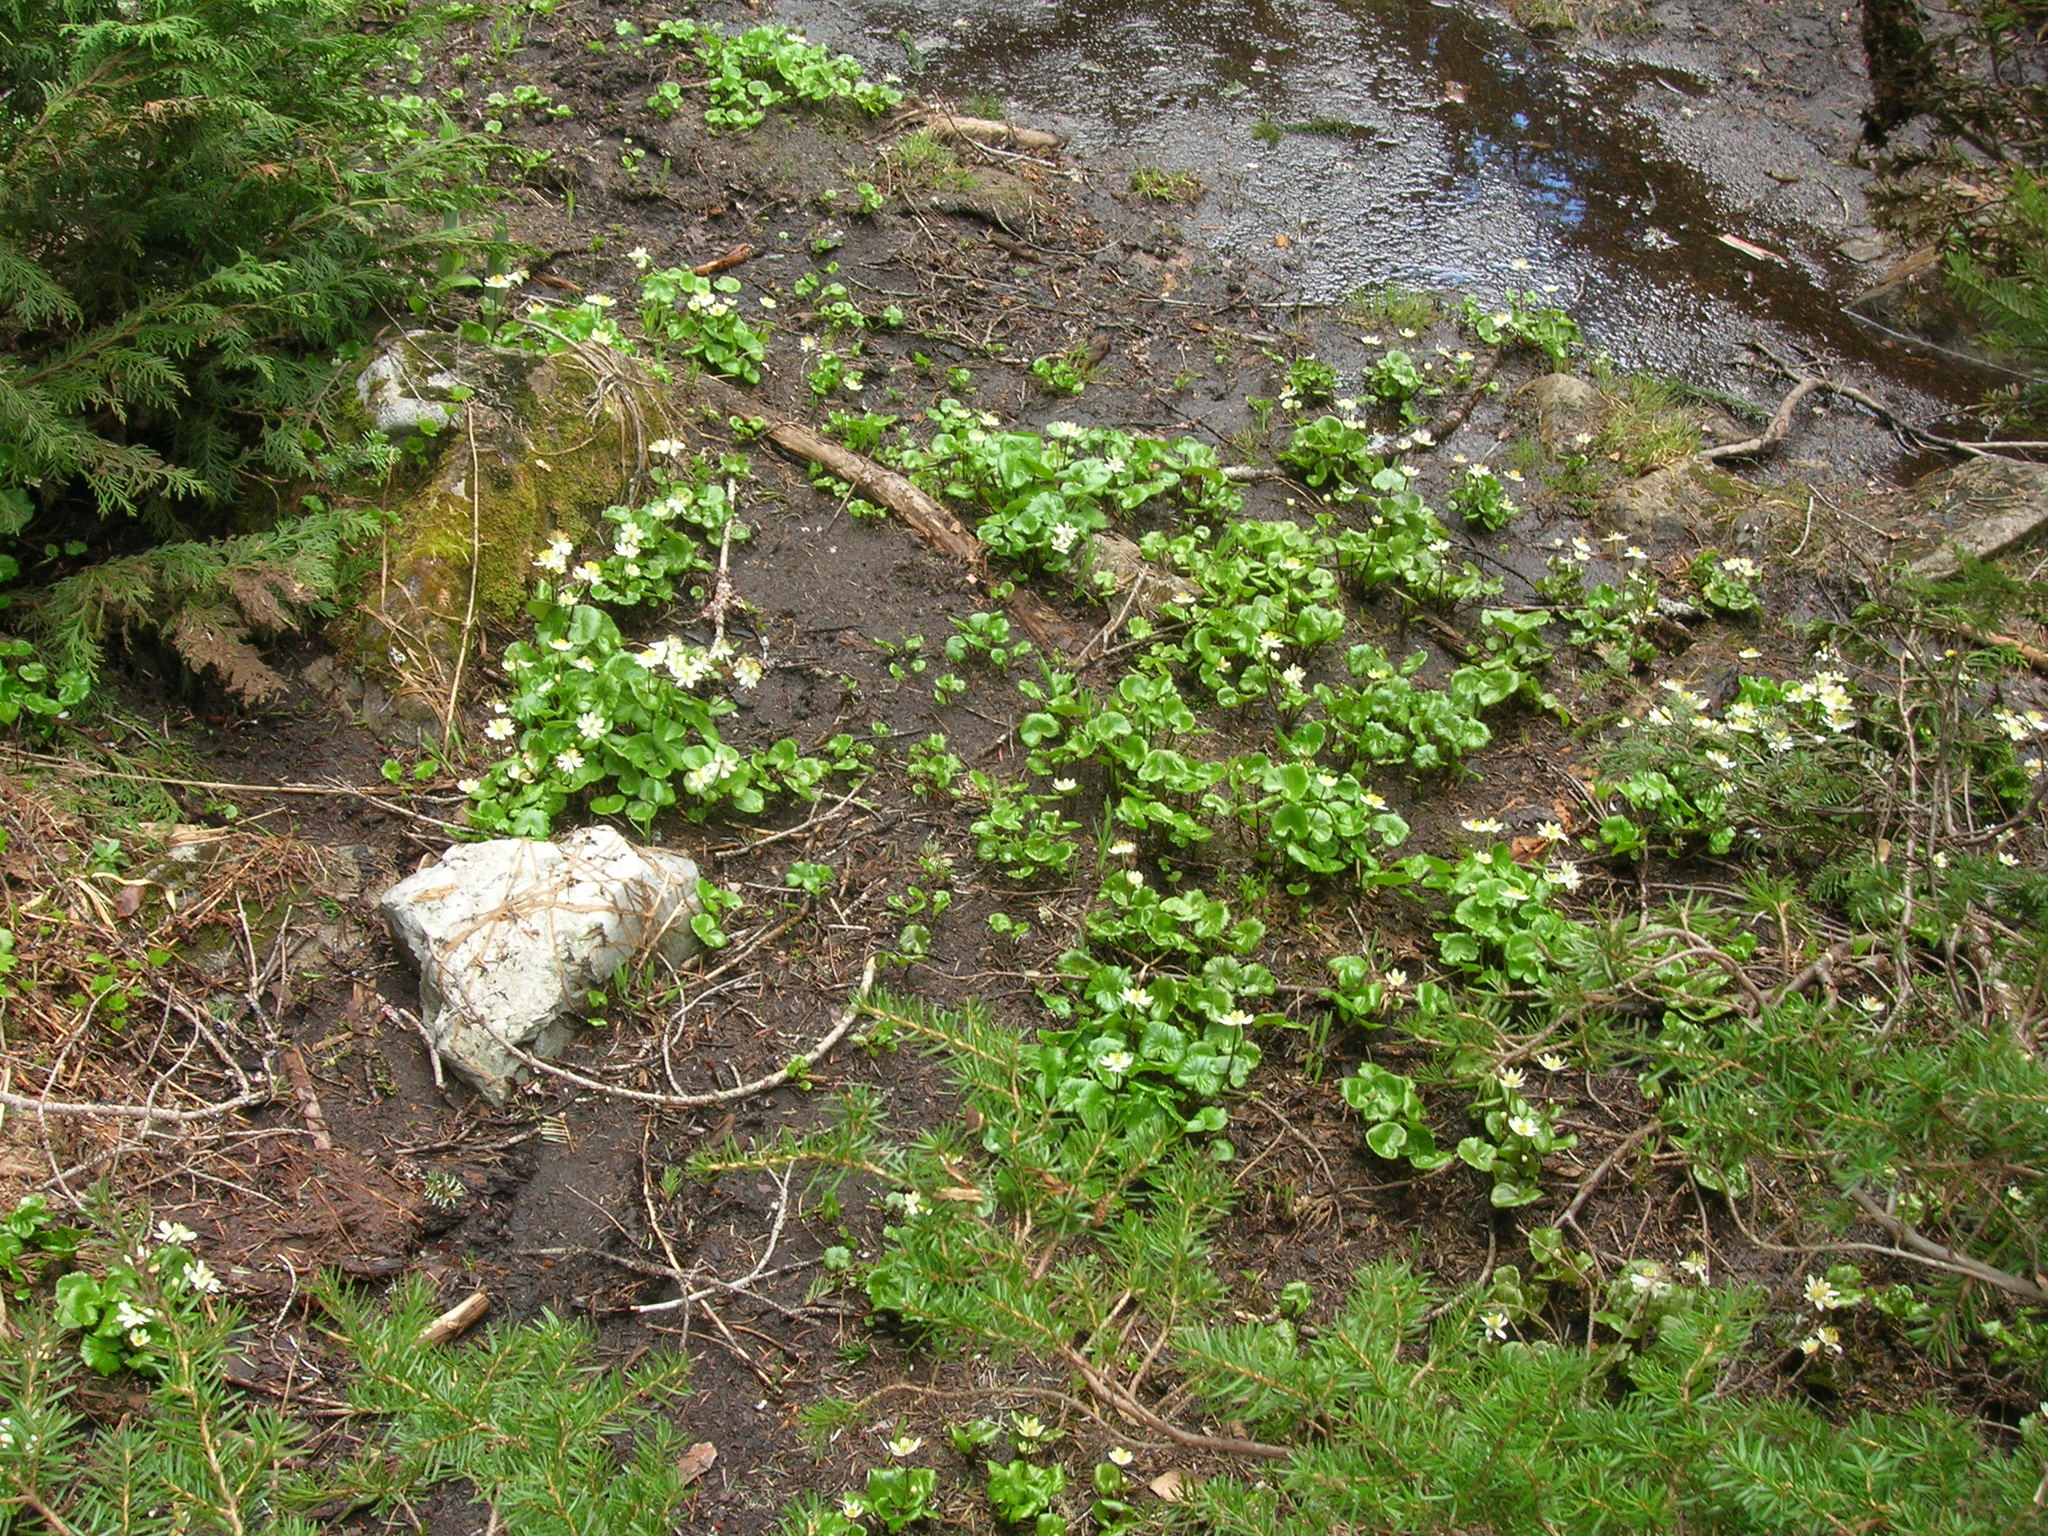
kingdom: Plantae
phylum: Tracheophyta
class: Magnoliopsida
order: Ranunculales
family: Ranunculaceae
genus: Caltha
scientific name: Caltha biflora
